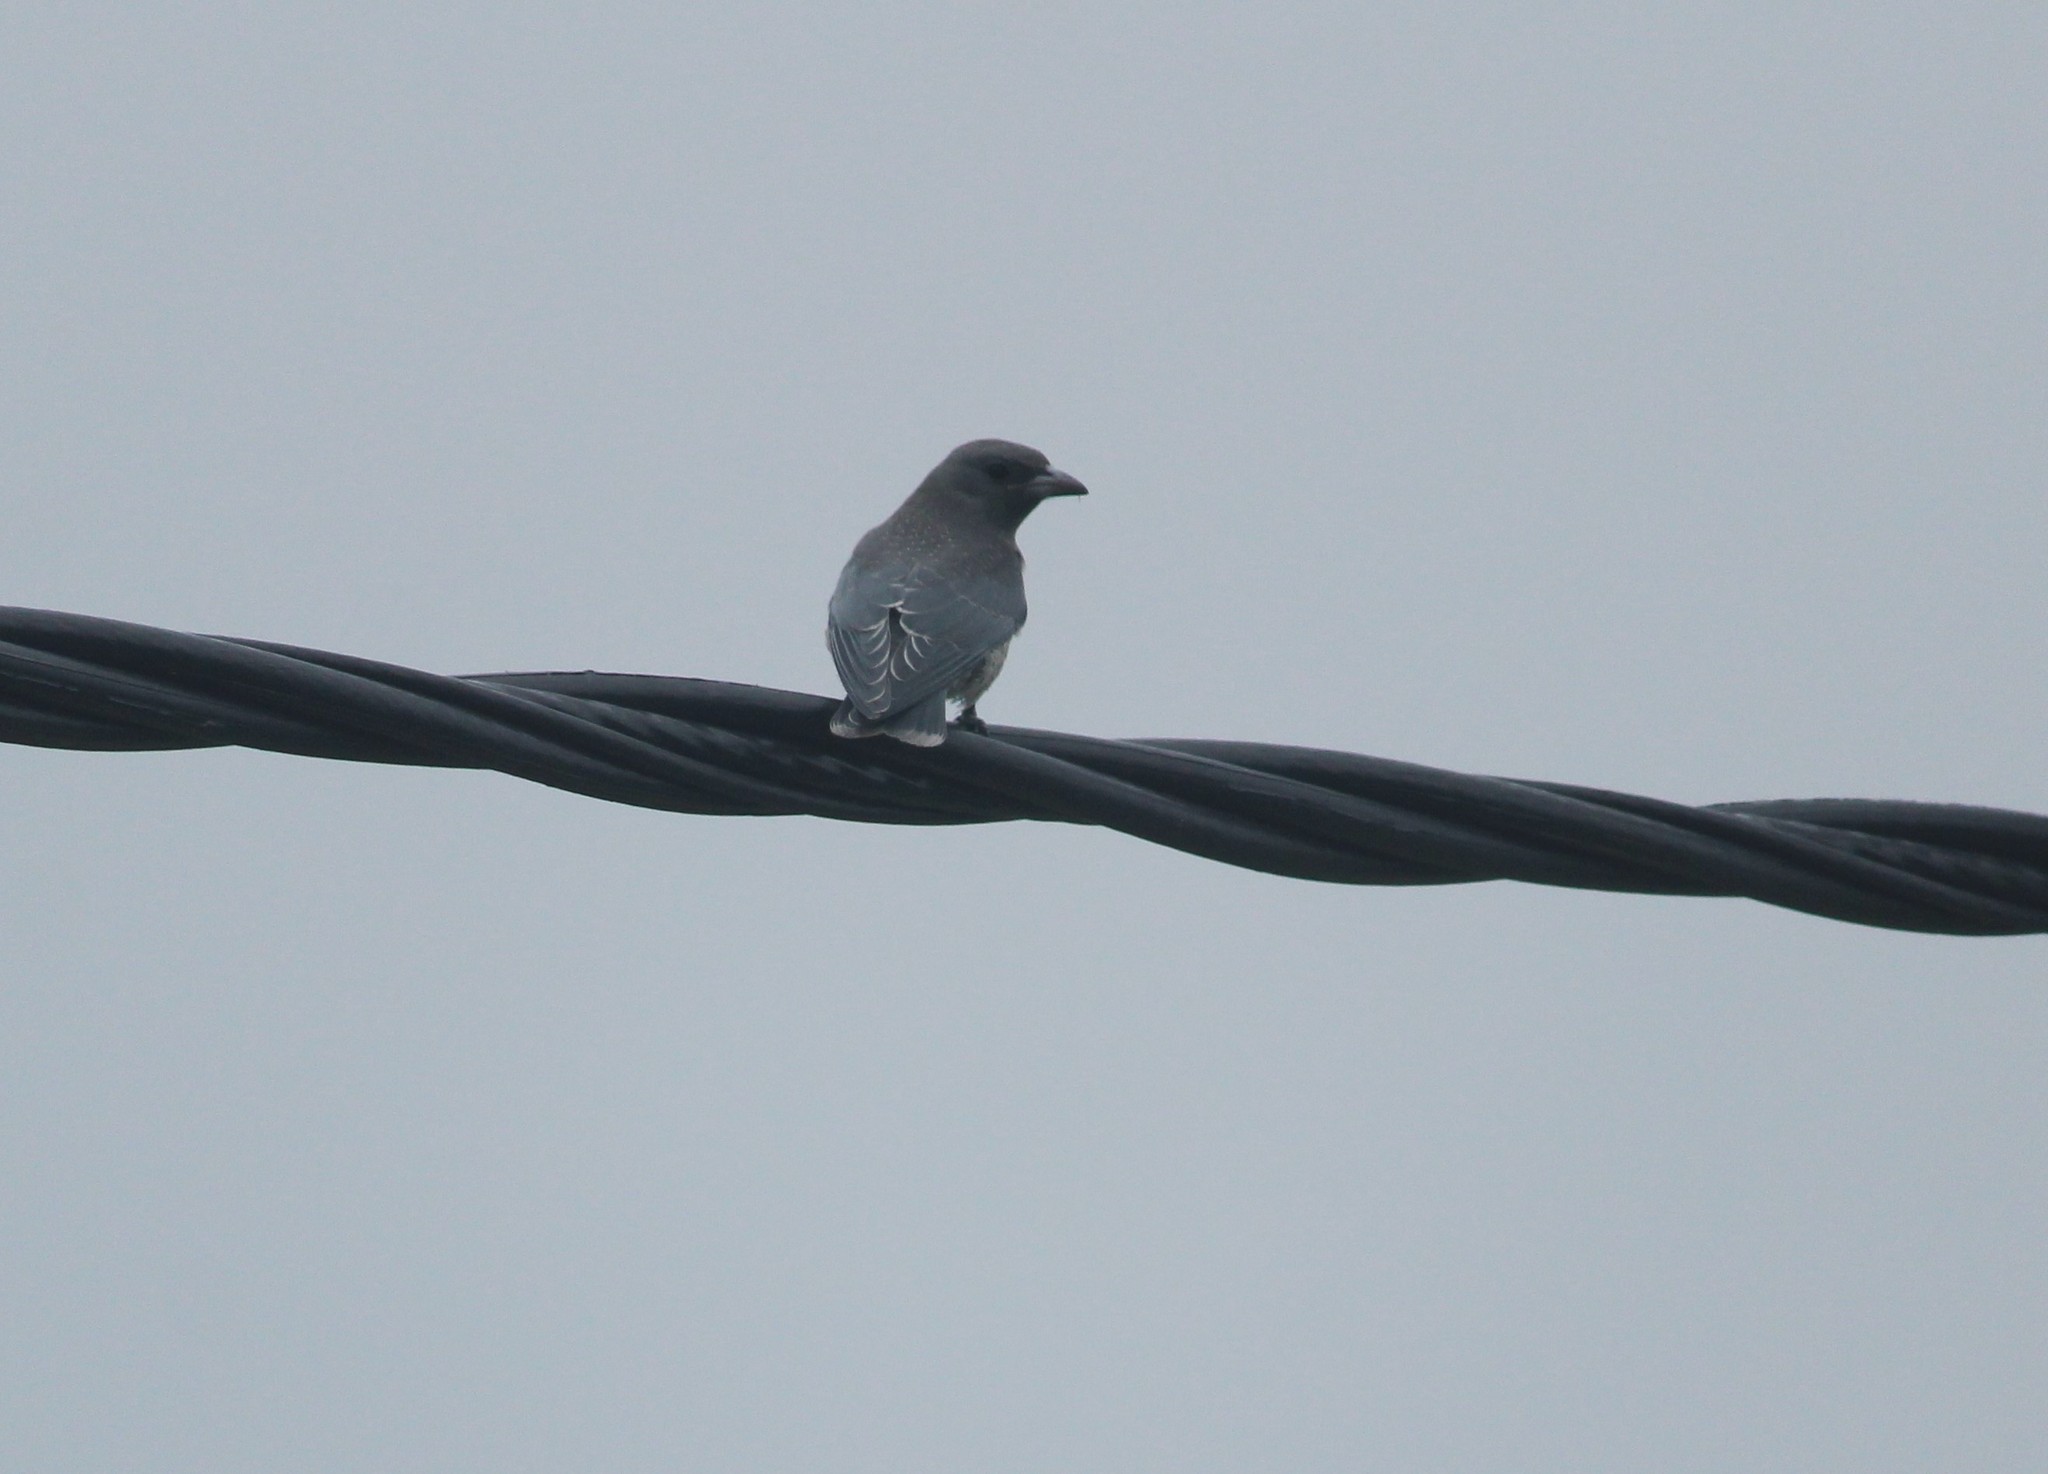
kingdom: Animalia
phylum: Chordata
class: Aves
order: Passeriformes
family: Artamidae
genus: Artamus
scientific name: Artamus fuscus
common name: Ashy woodswallow
